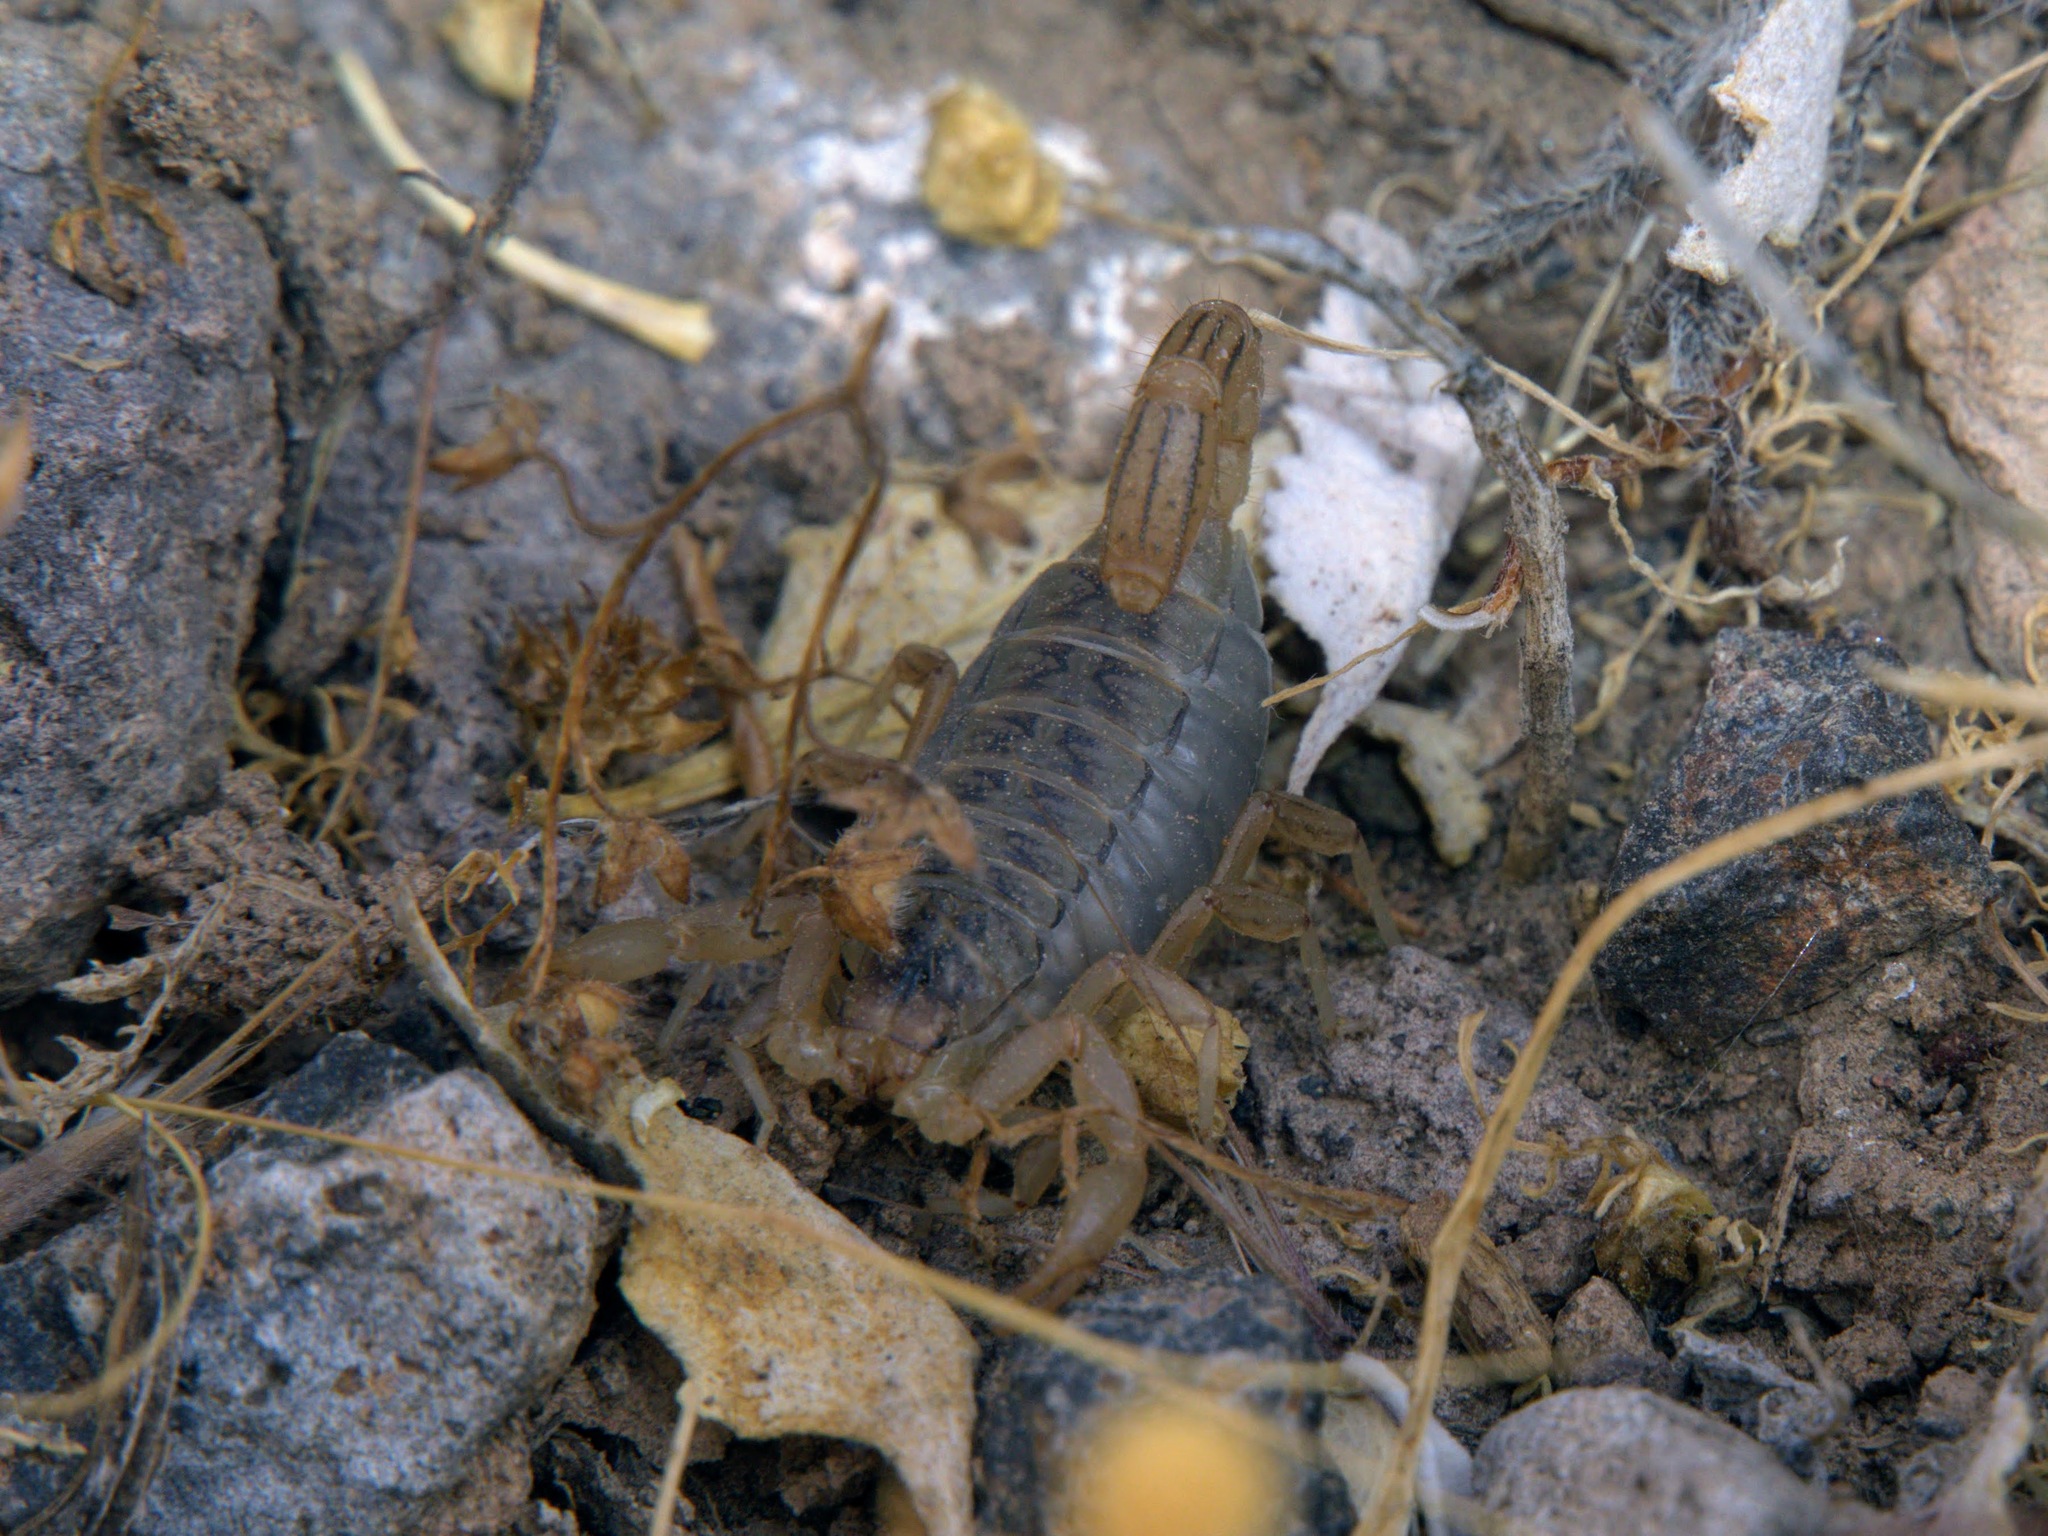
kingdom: Animalia
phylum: Arthropoda
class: Arachnida
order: Scorpiones
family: Vaejovidae
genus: Paravaejovis
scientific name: Paravaejovis spinigerus
